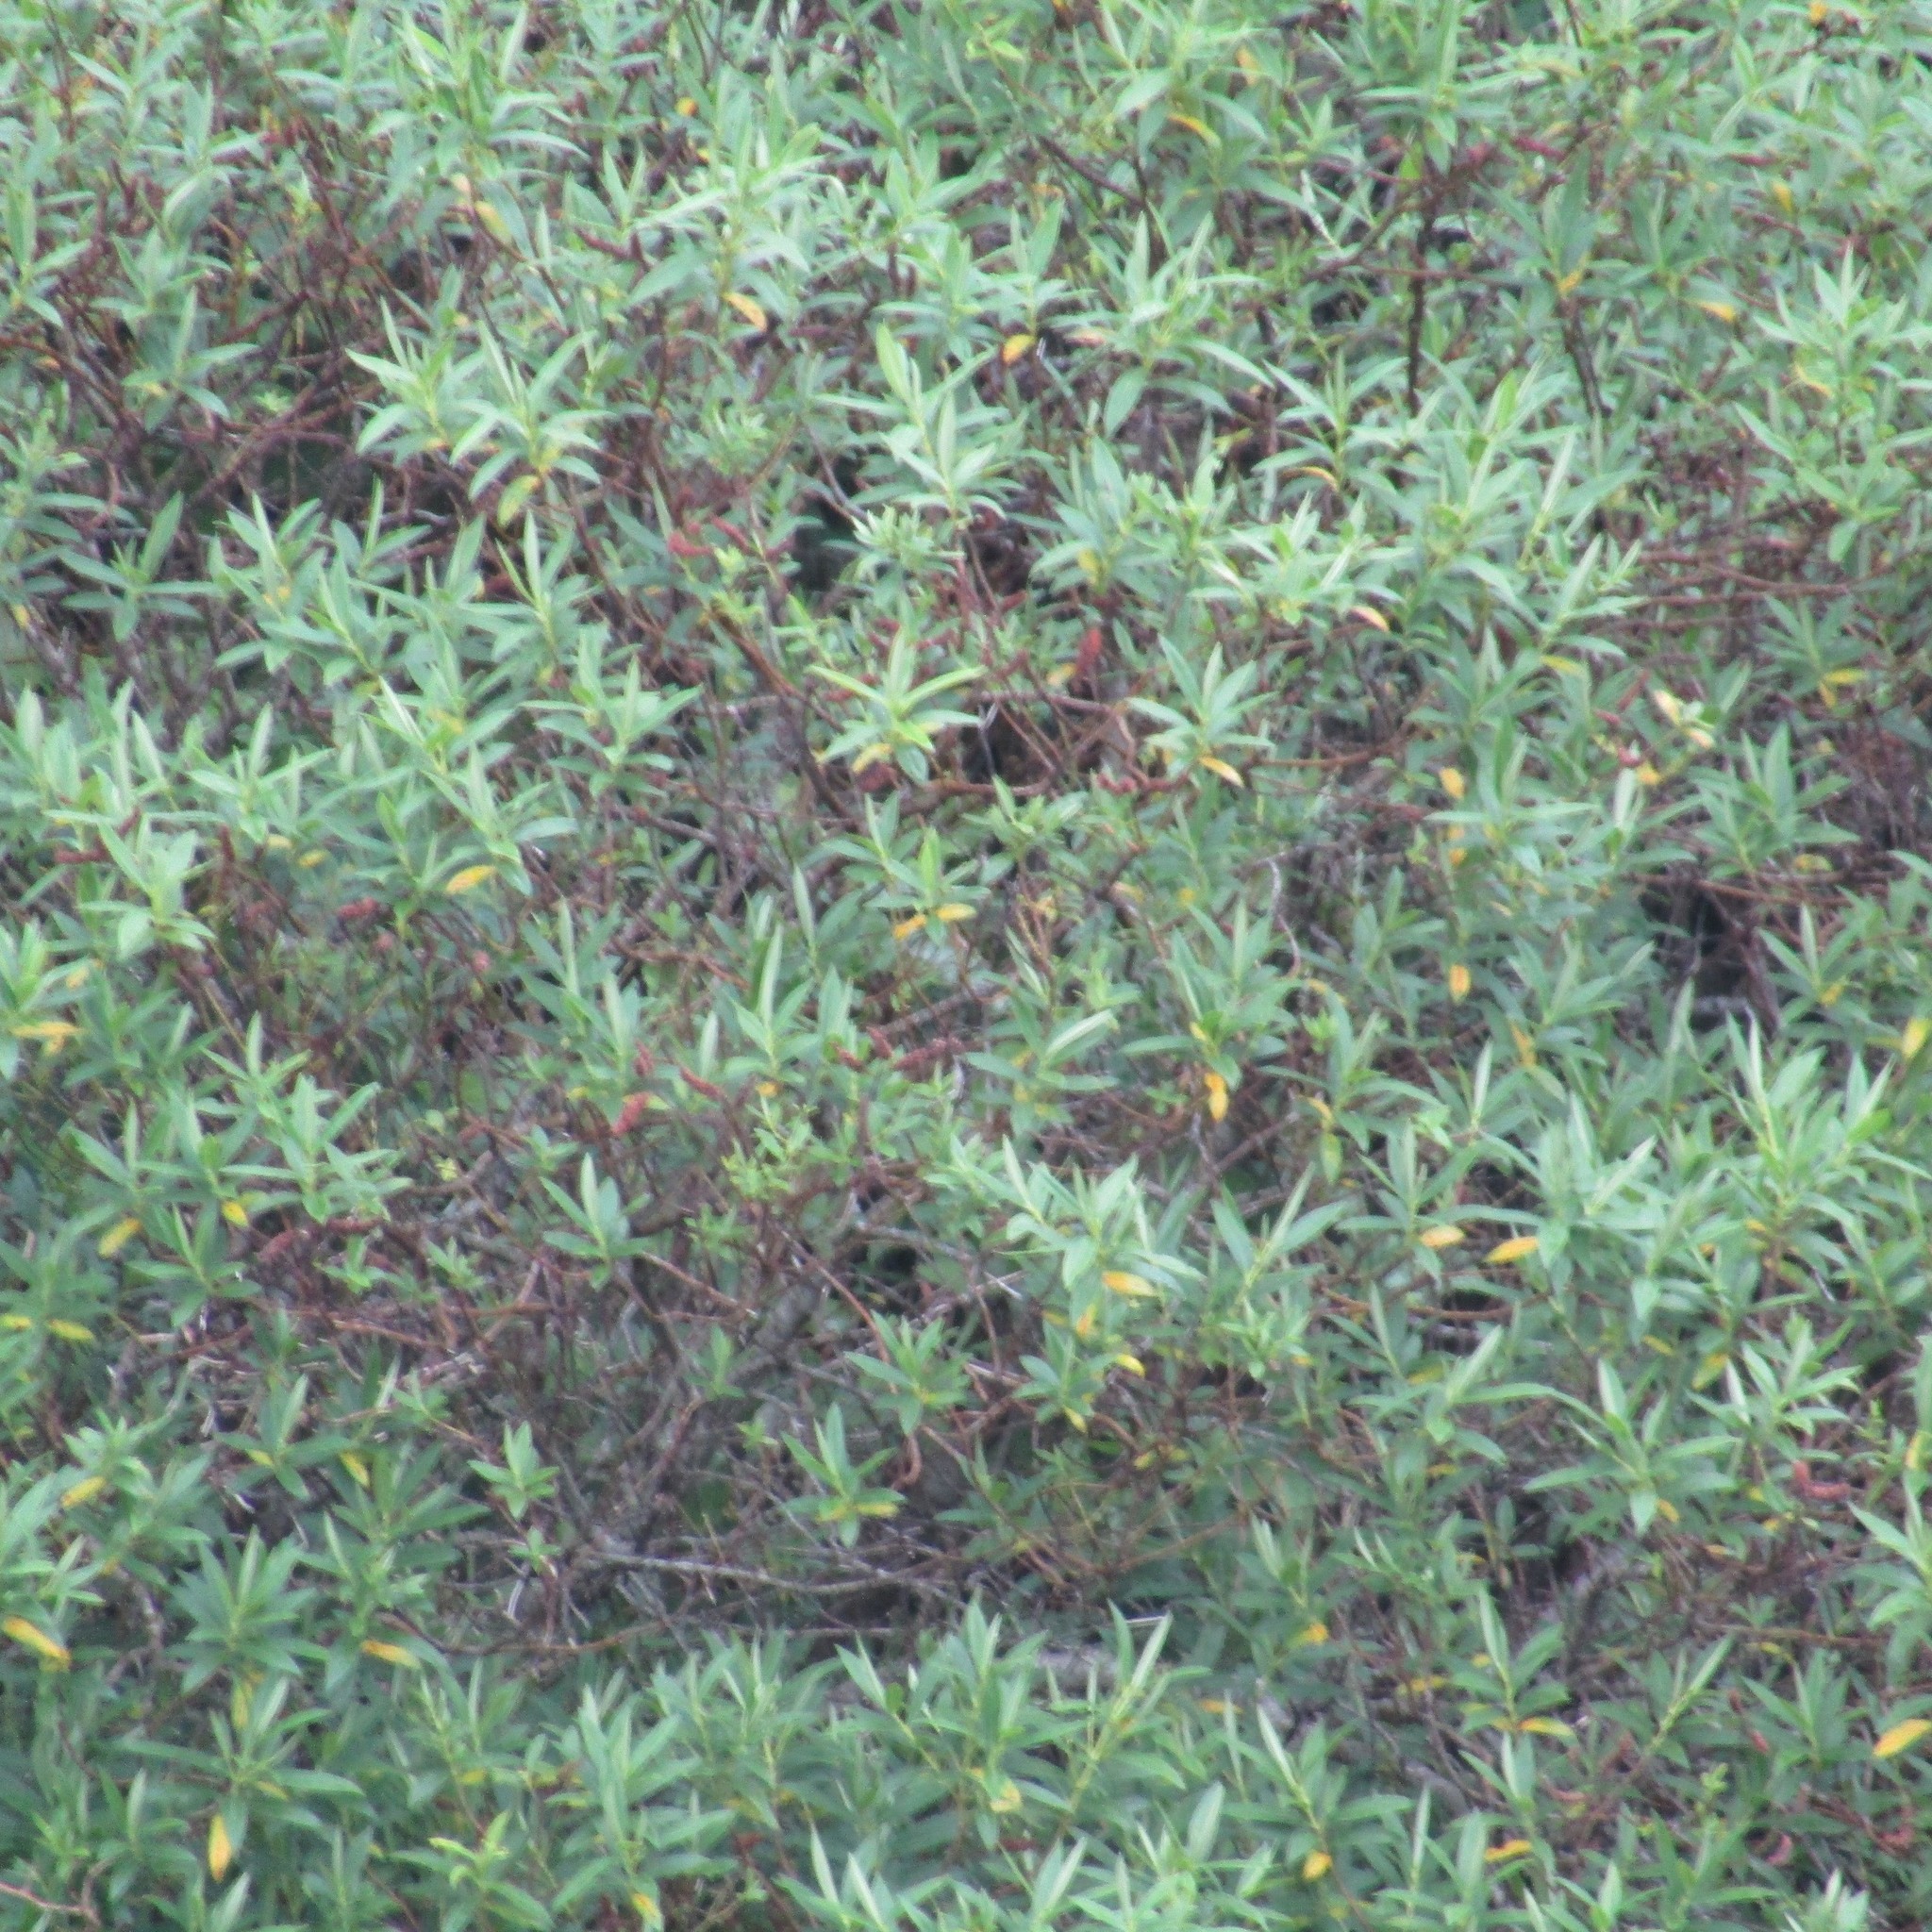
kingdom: Plantae
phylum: Tracheophyta
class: Magnoliopsida
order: Lamiales
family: Plantaginaceae
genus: Veronica
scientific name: Veronica stricta
